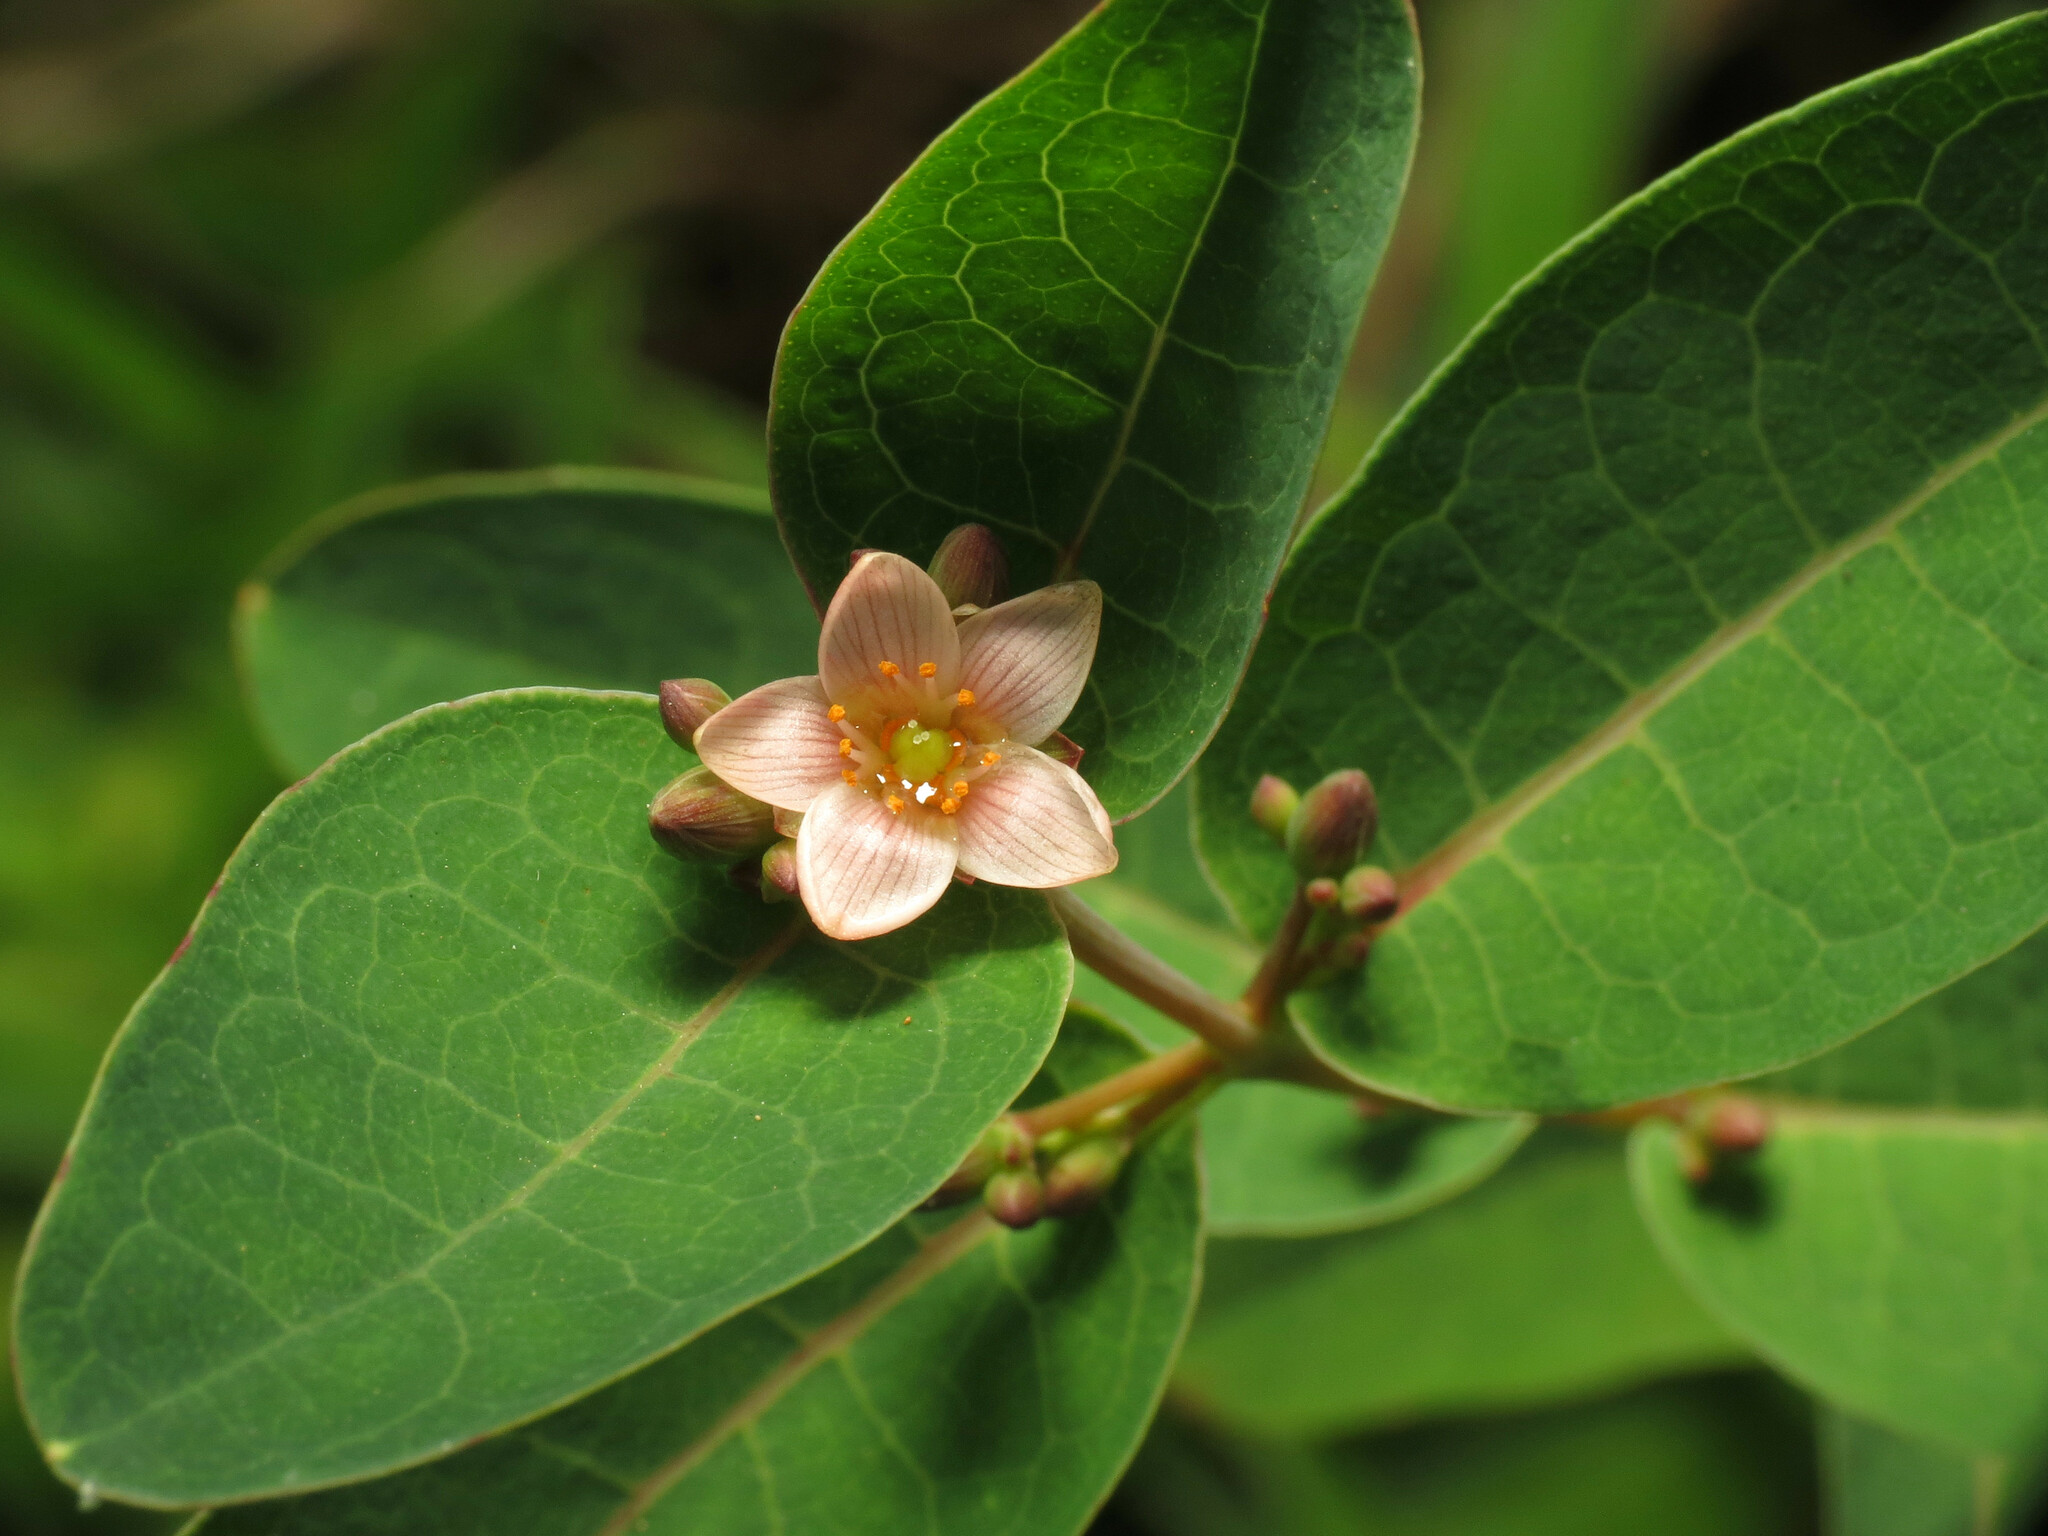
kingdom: Plantae
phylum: Tracheophyta
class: Magnoliopsida
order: Malpighiales
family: Hypericaceae
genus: Triadenum
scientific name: Triadenum virginicum
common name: Marsh st. john's-wort
